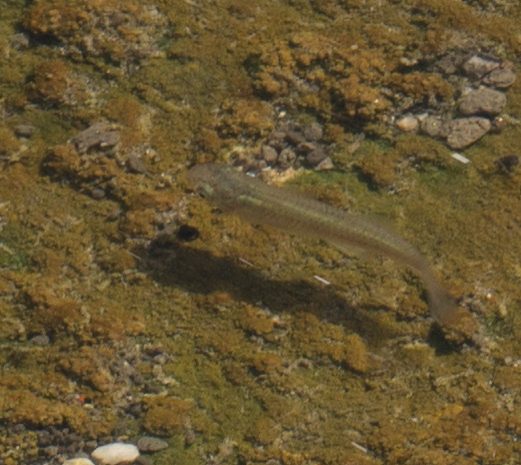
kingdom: Animalia
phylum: Chordata
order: Cyprinodontiformes
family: Poeciliidae
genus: Gambusia
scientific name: Gambusia affinis
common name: Mosquitofish
